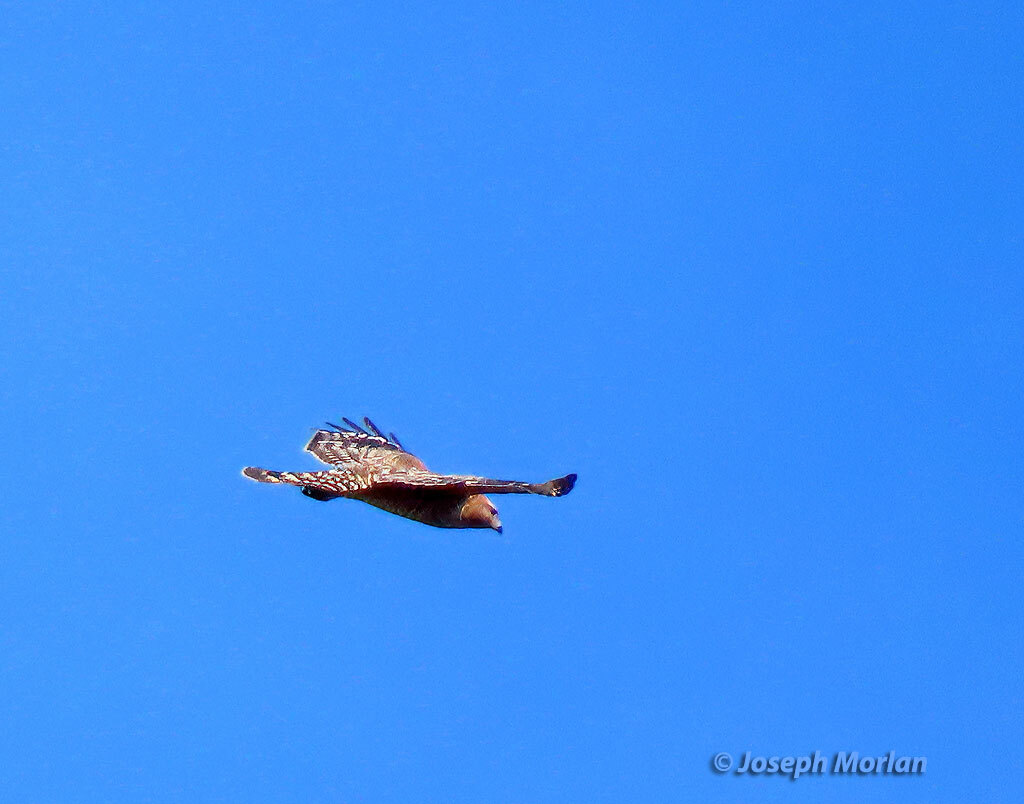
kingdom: Animalia
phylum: Chordata
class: Aves
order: Accipitriformes
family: Accipitridae
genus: Buteo
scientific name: Buteo lineatus
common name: Red-shouldered hawk
